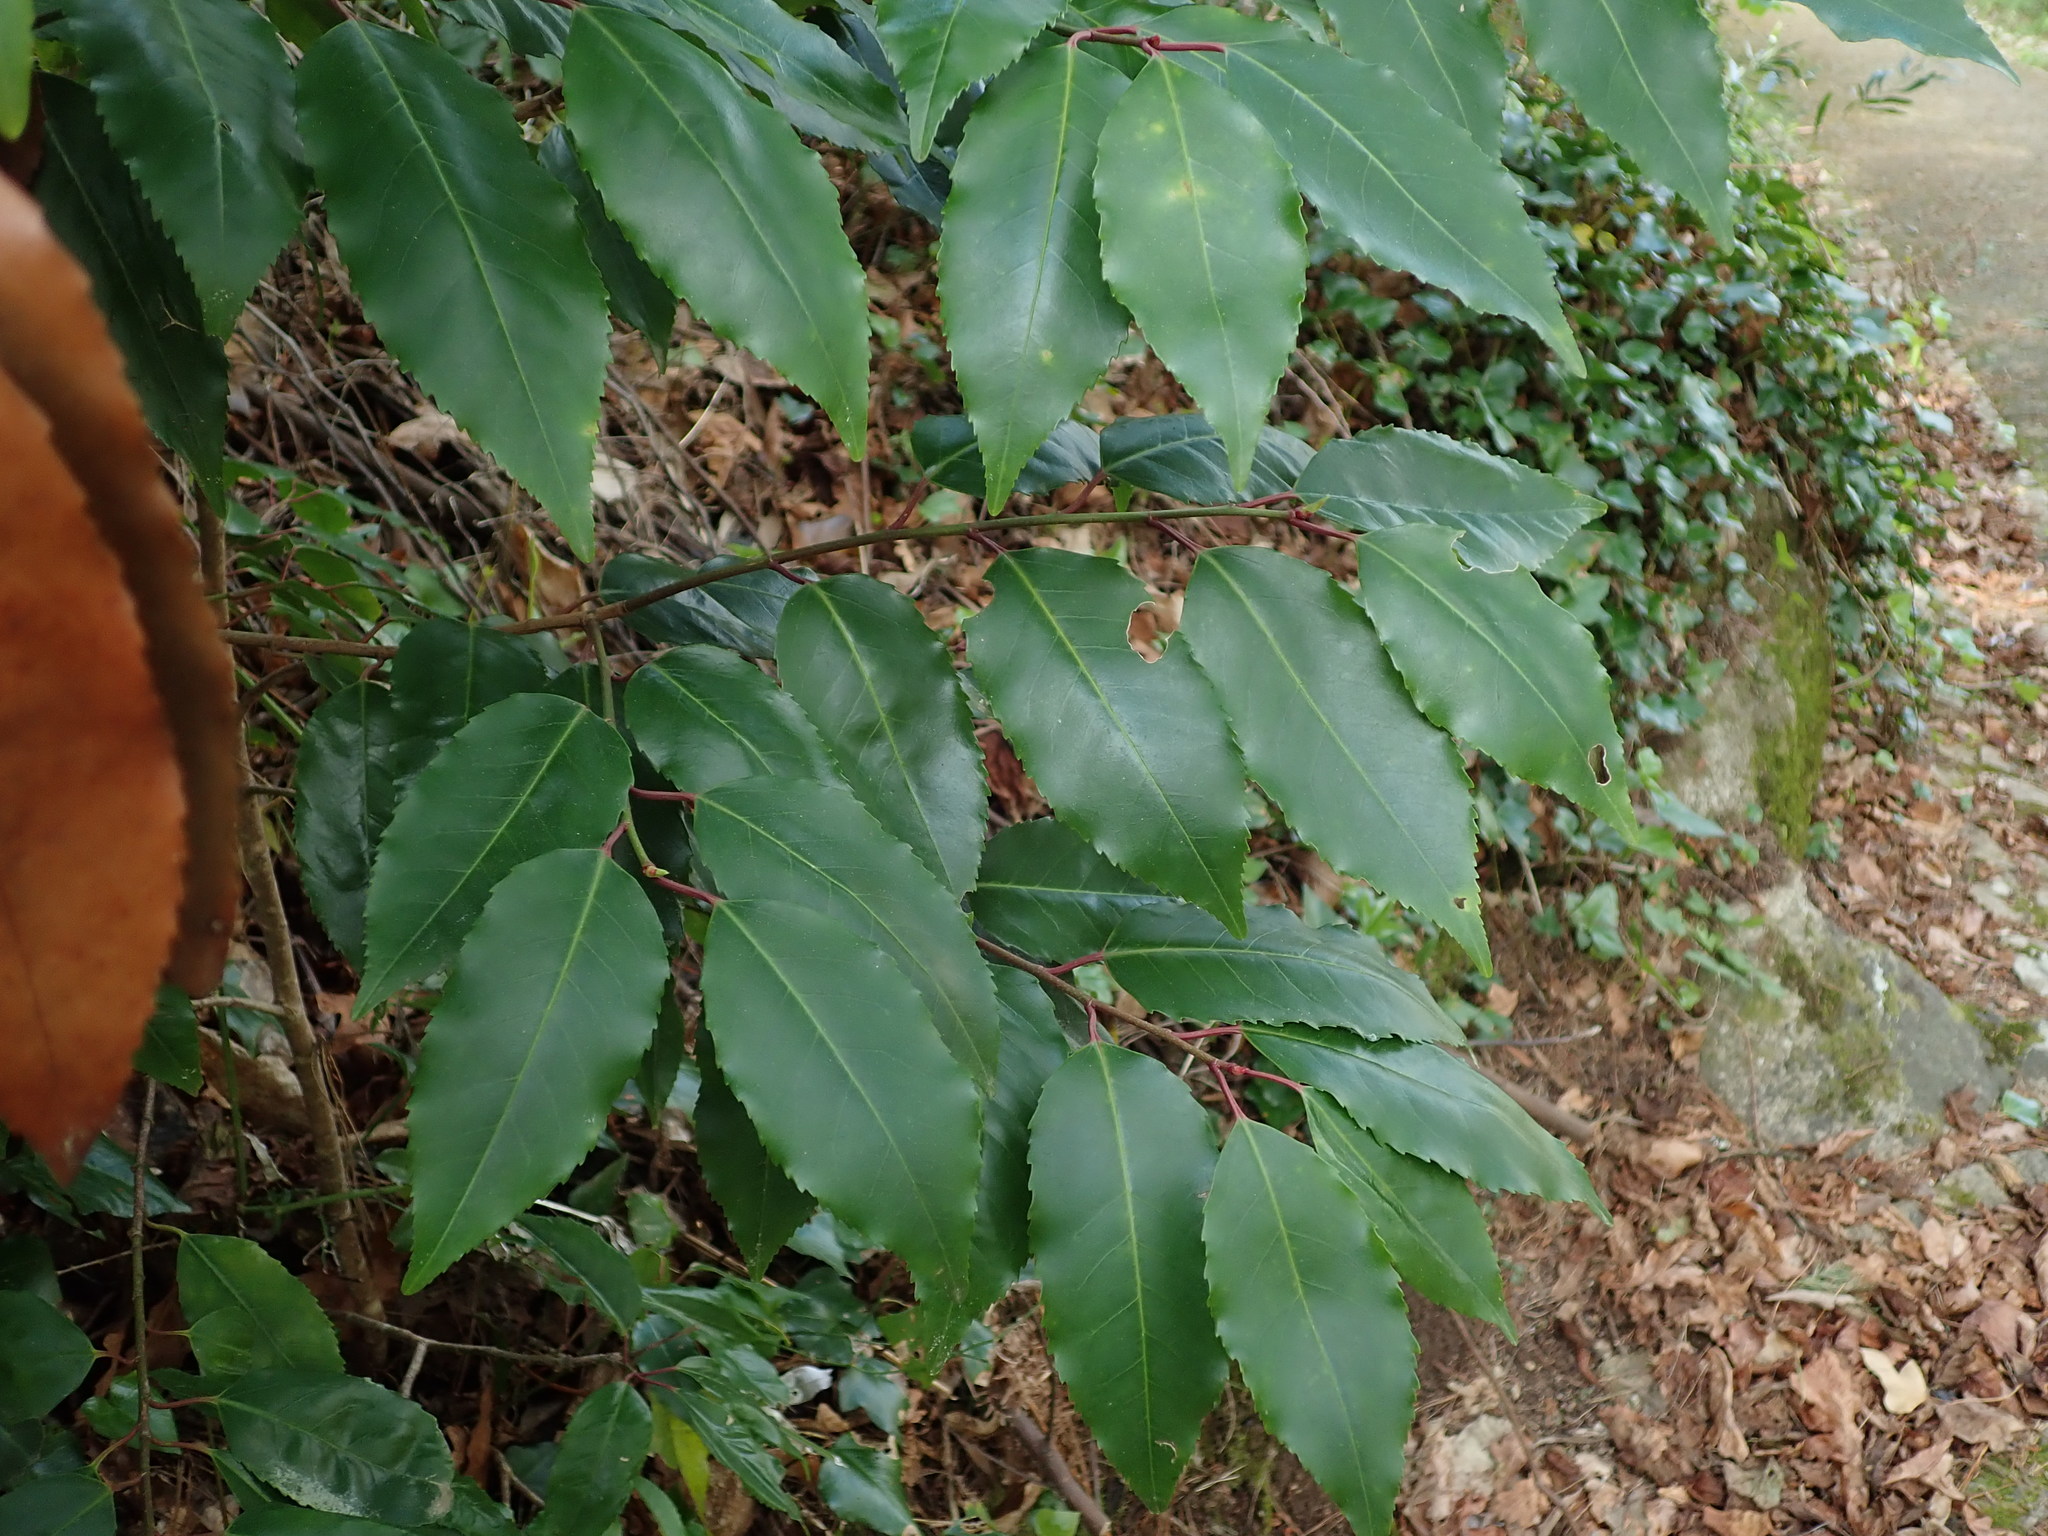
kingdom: Plantae
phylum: Tracheophyta
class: Magnoliopsida
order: Rosales
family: Rosaceae
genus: Prunus
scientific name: Prunus lusitanica
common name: Portugal laurel
